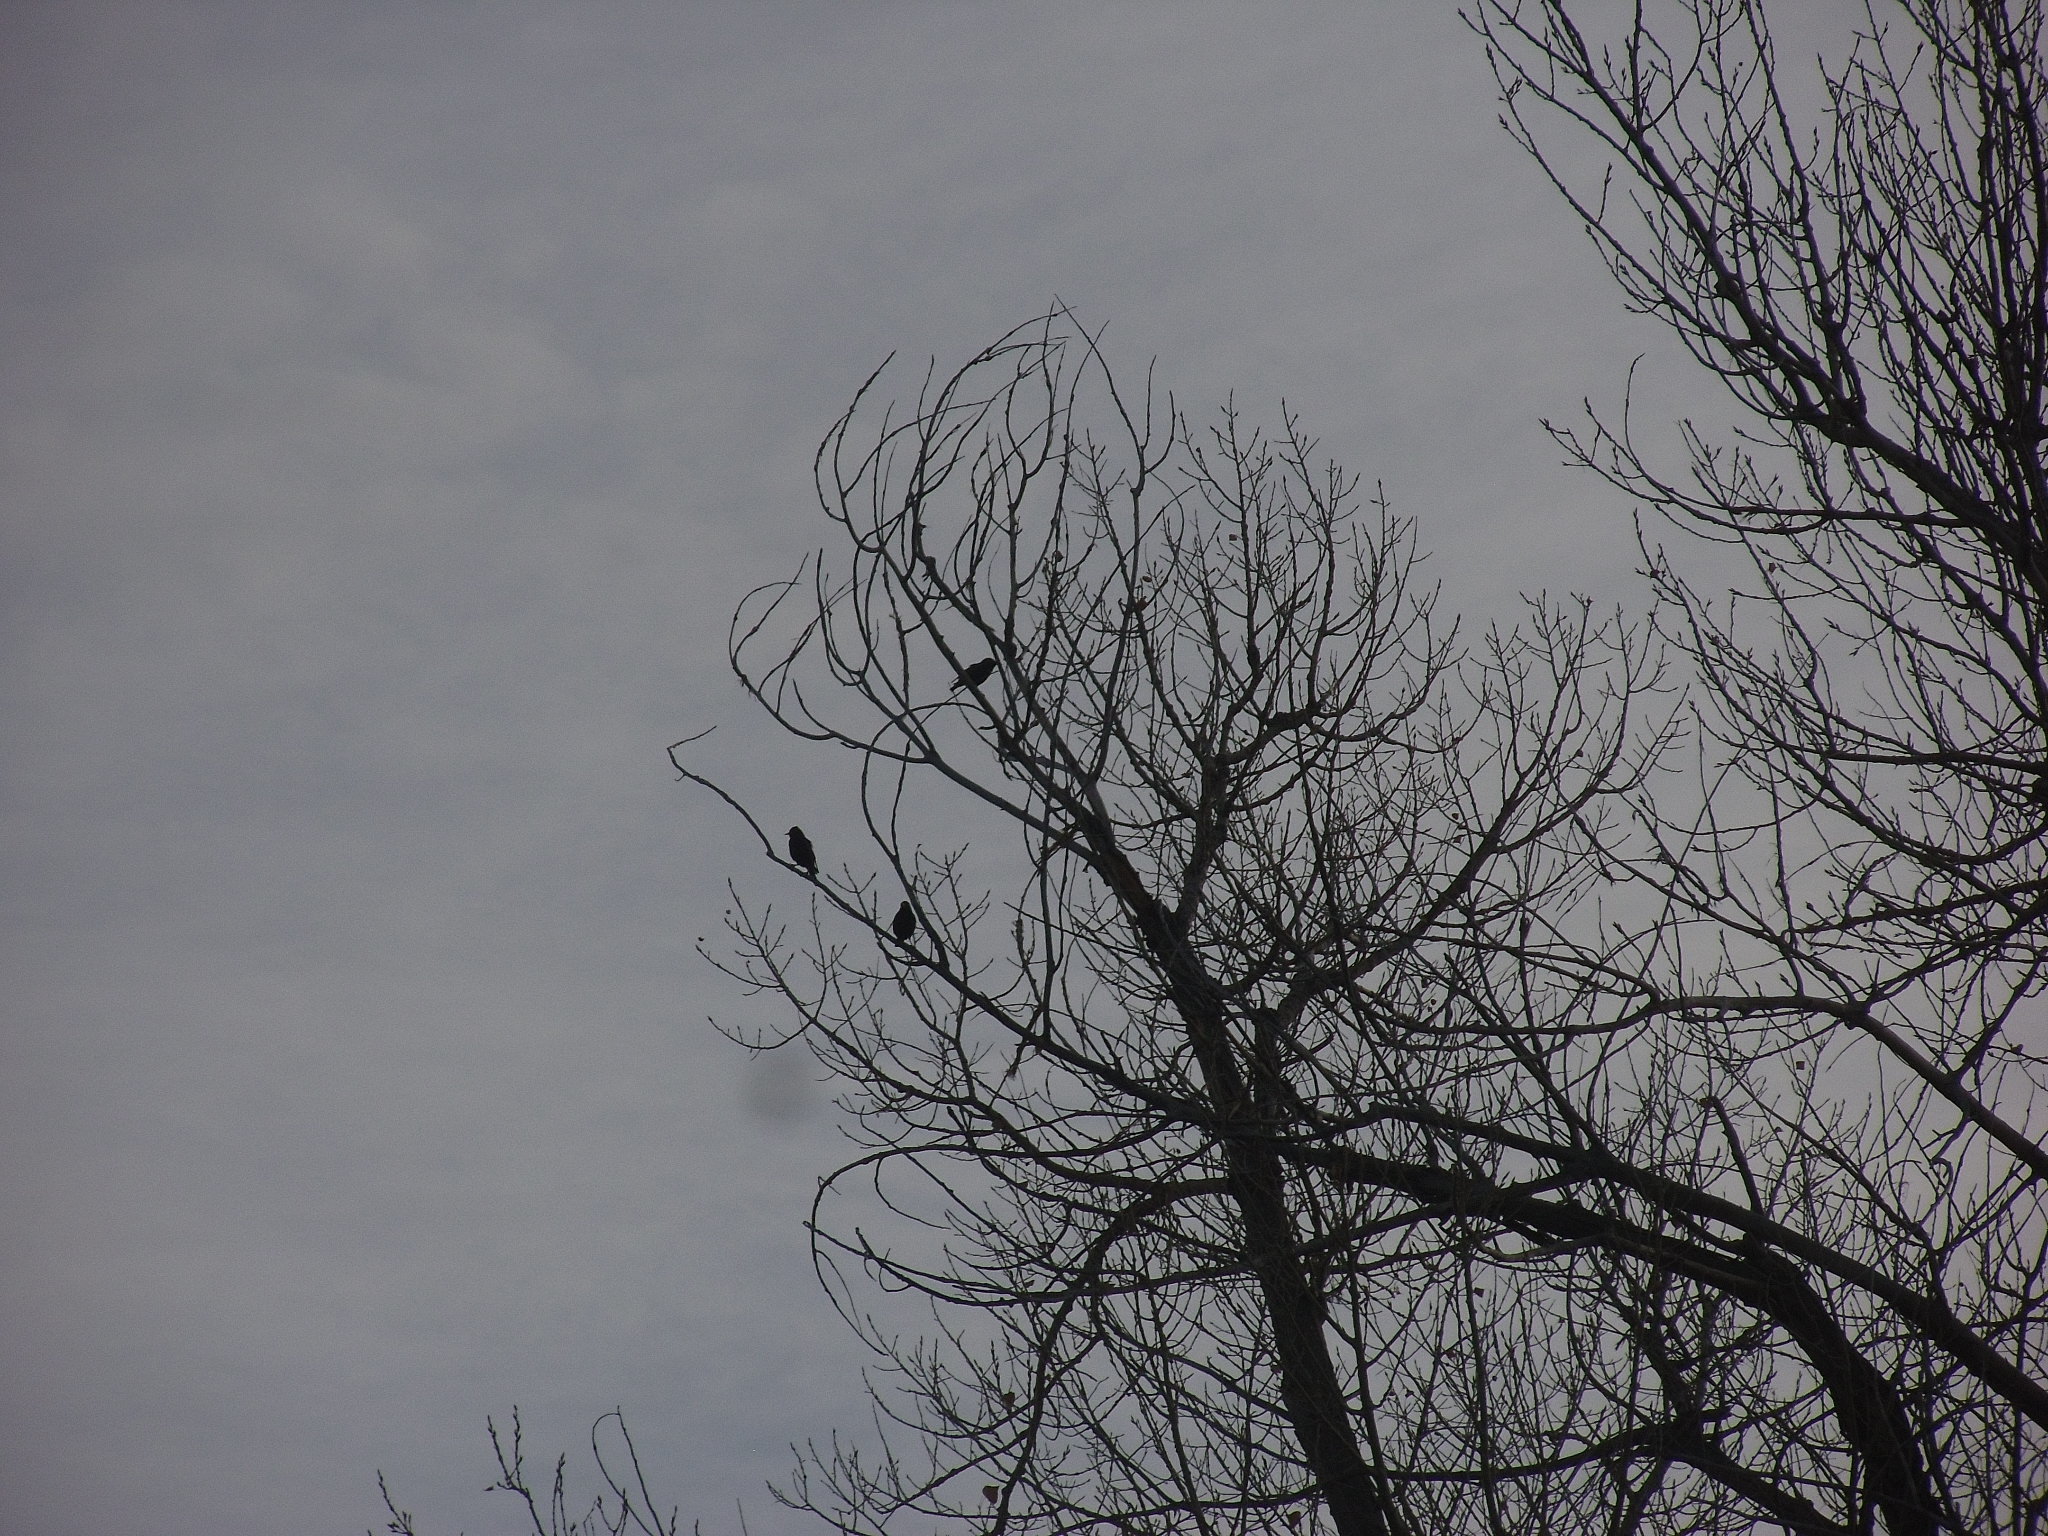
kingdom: Animalia
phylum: Chordata
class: Aves
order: Passeriformes
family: Sturnidae
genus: Sturnus
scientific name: Sturnus vulgaris
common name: Common starling
